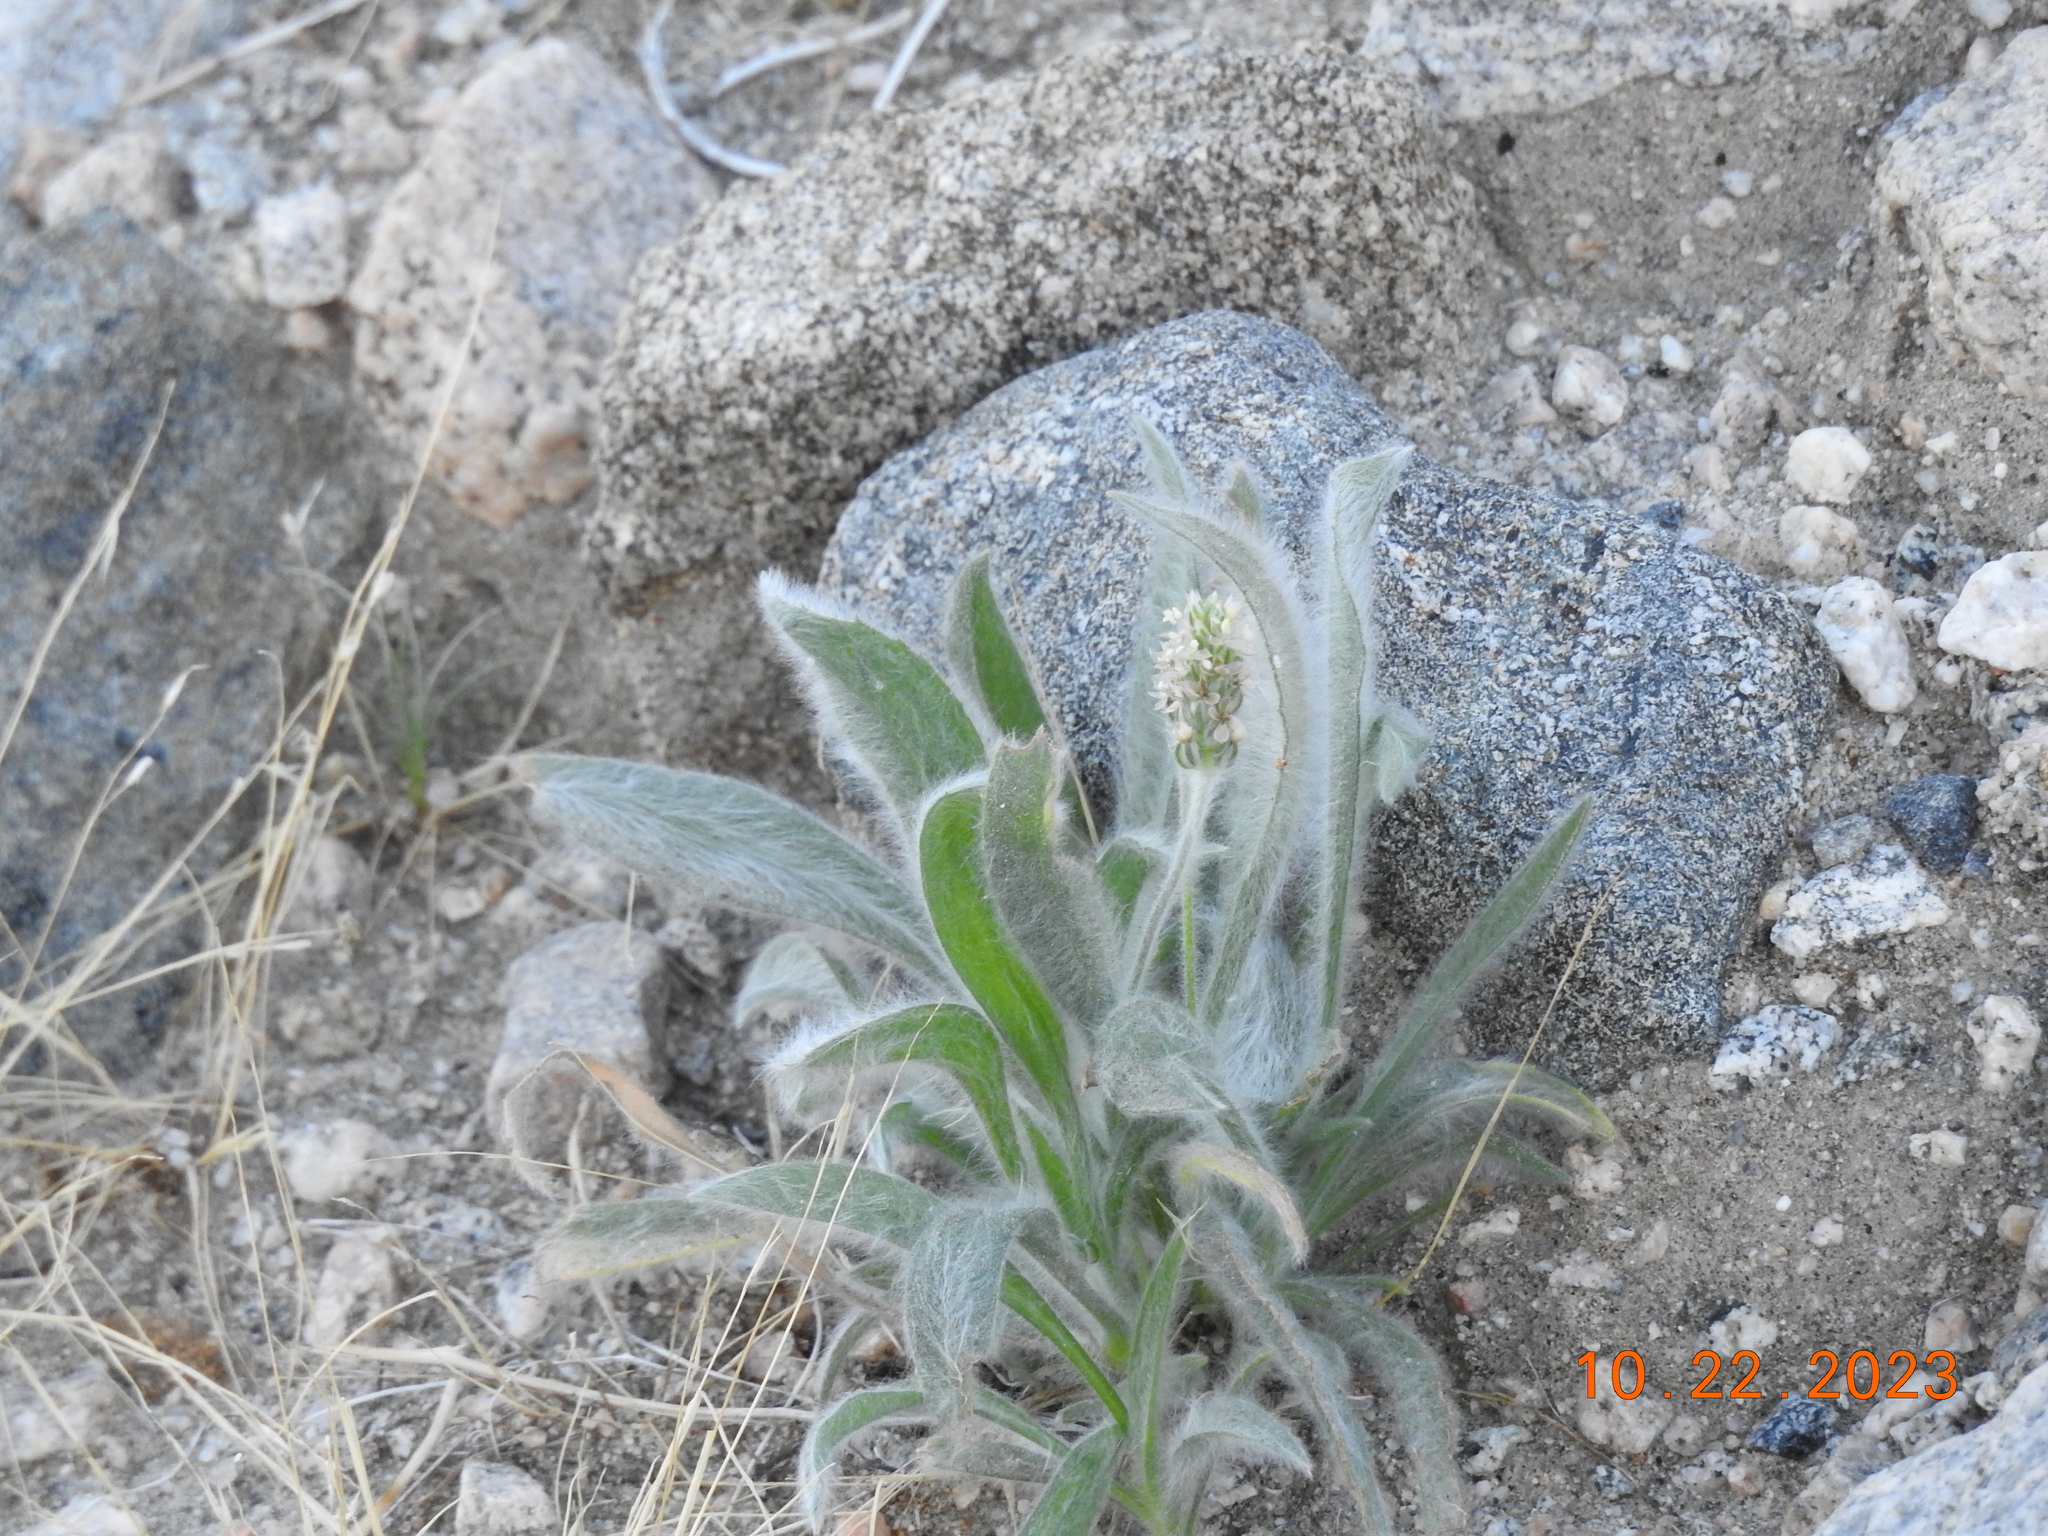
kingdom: Plantae
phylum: Tracheophyta
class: Magnoliopsida
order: Lamiales
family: Plantaginaceae
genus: Plantago
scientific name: Plantago ovata
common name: Blond plantain
